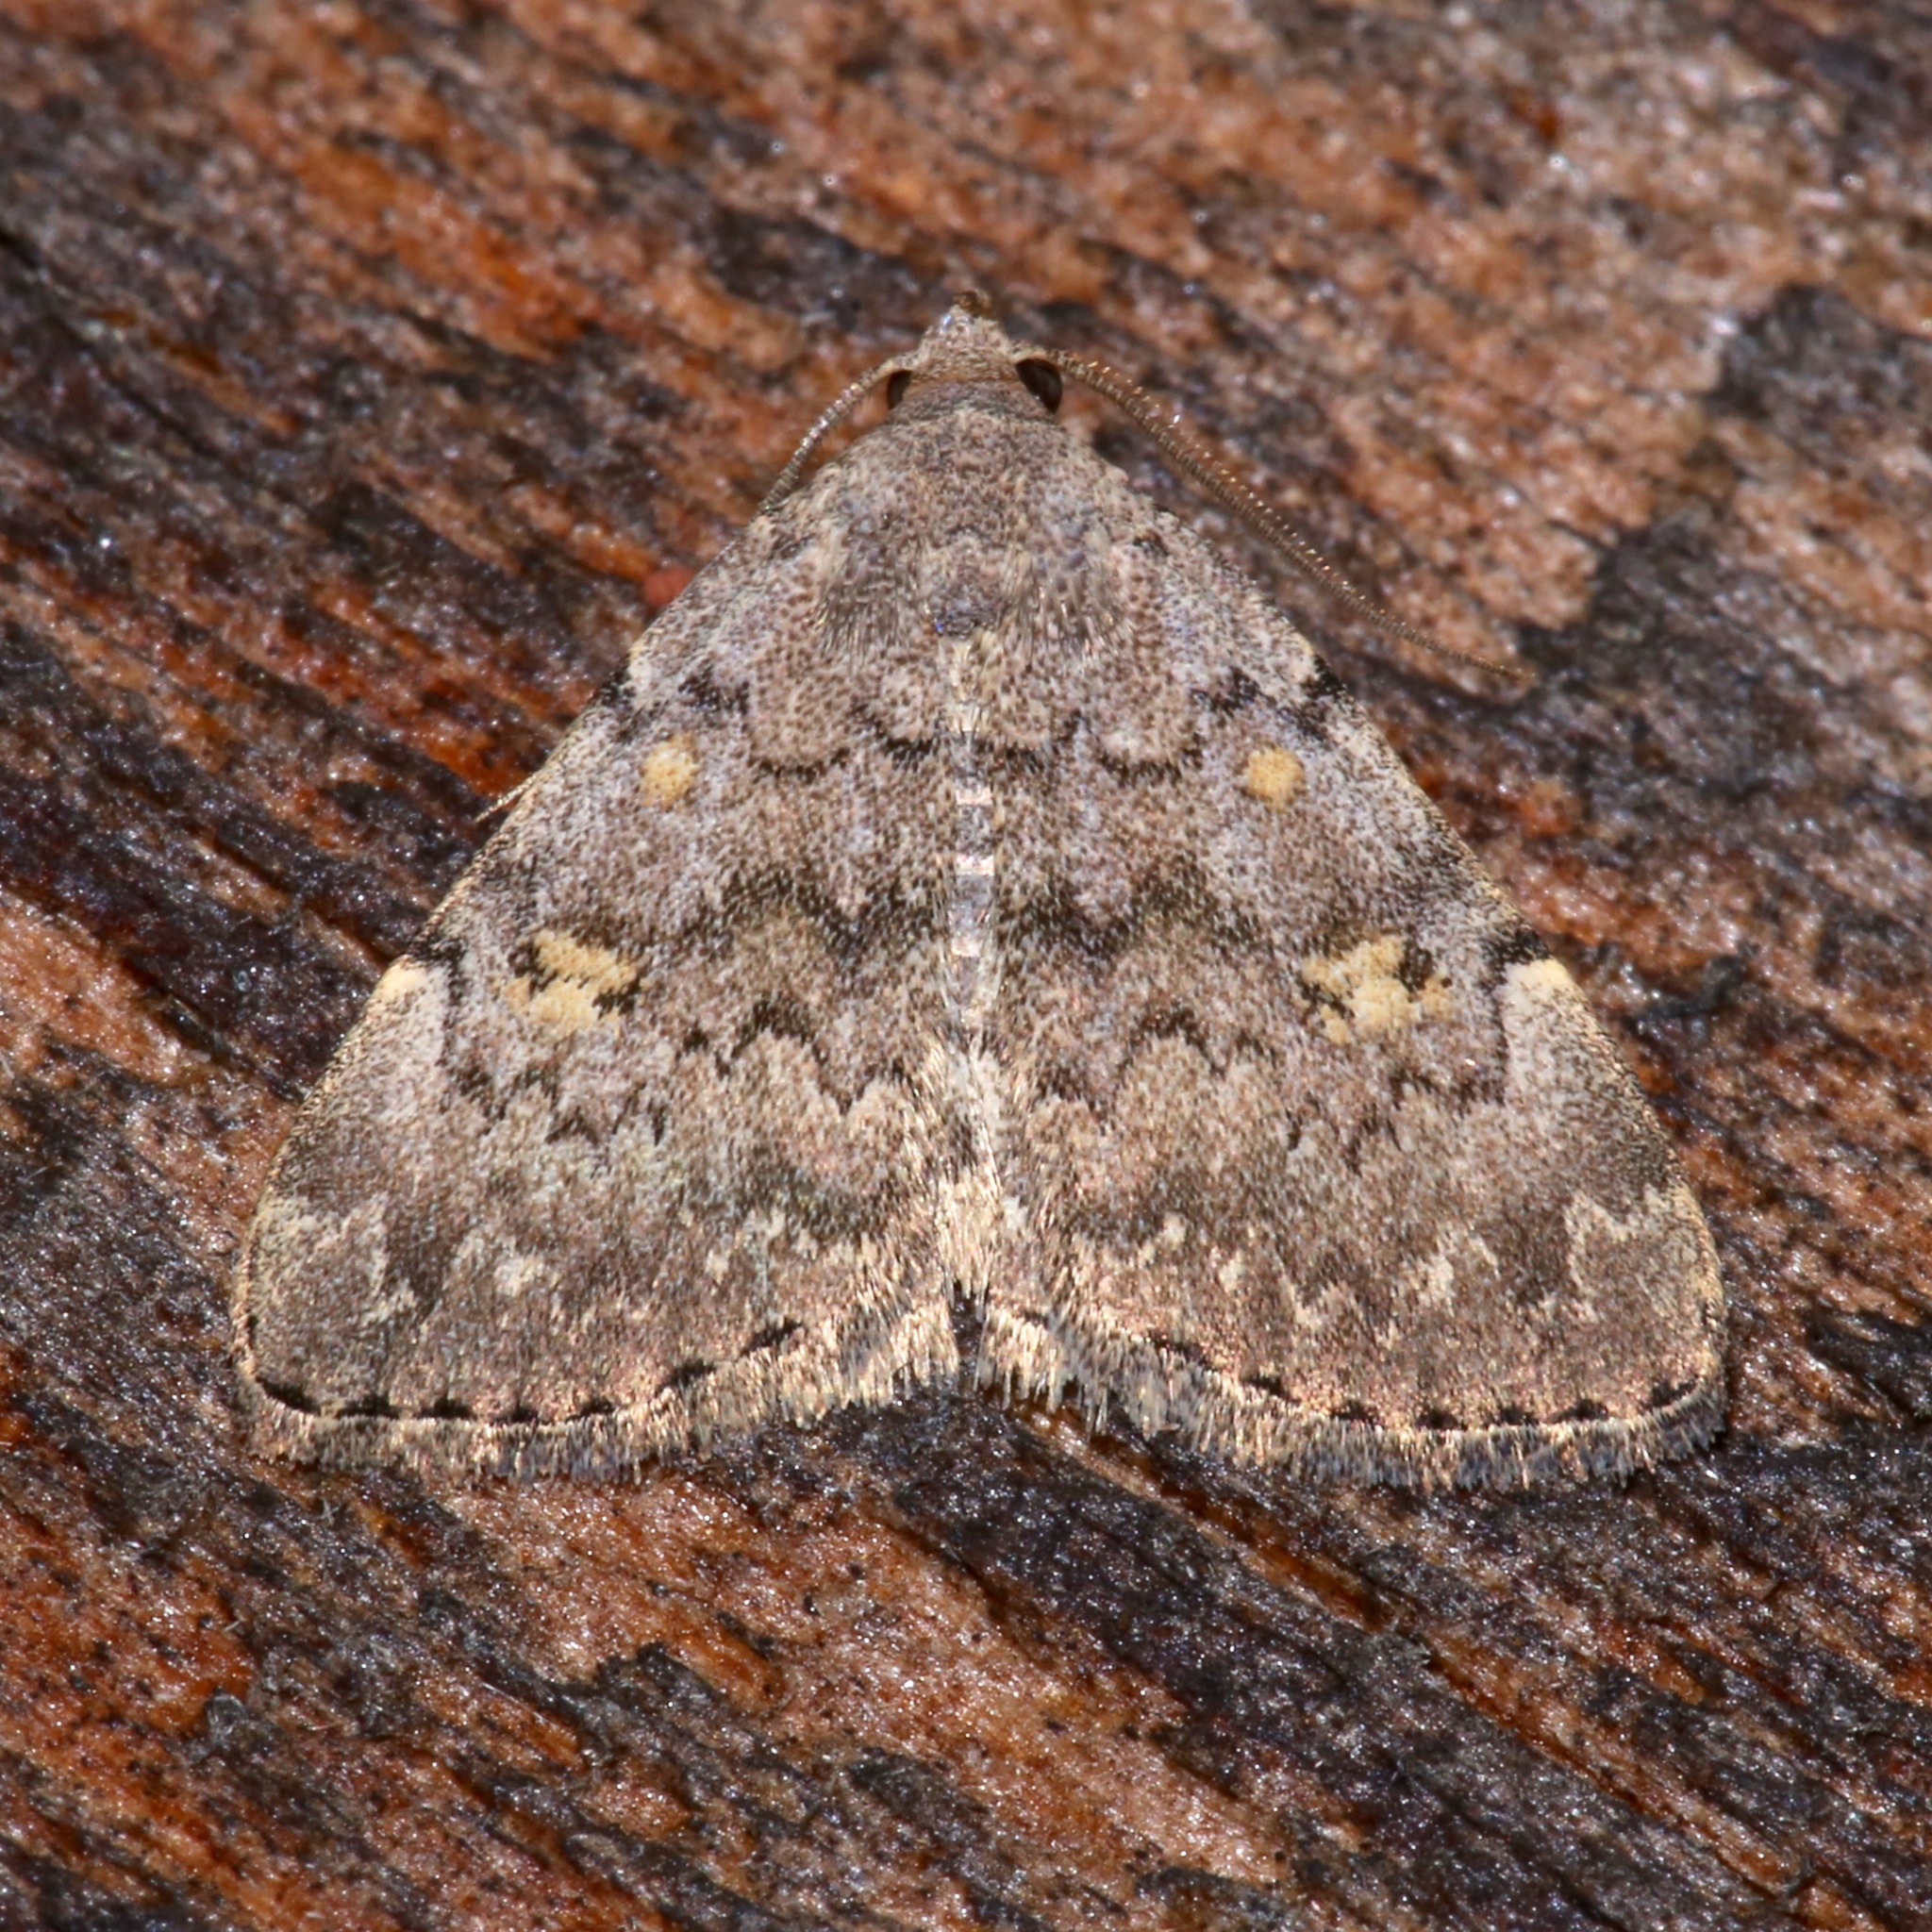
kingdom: Animalia
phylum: Arthropoda
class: Insecta
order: Lepidoptera
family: Erebidae
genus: Idia
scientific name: Idia aemula
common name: Common idia moth
